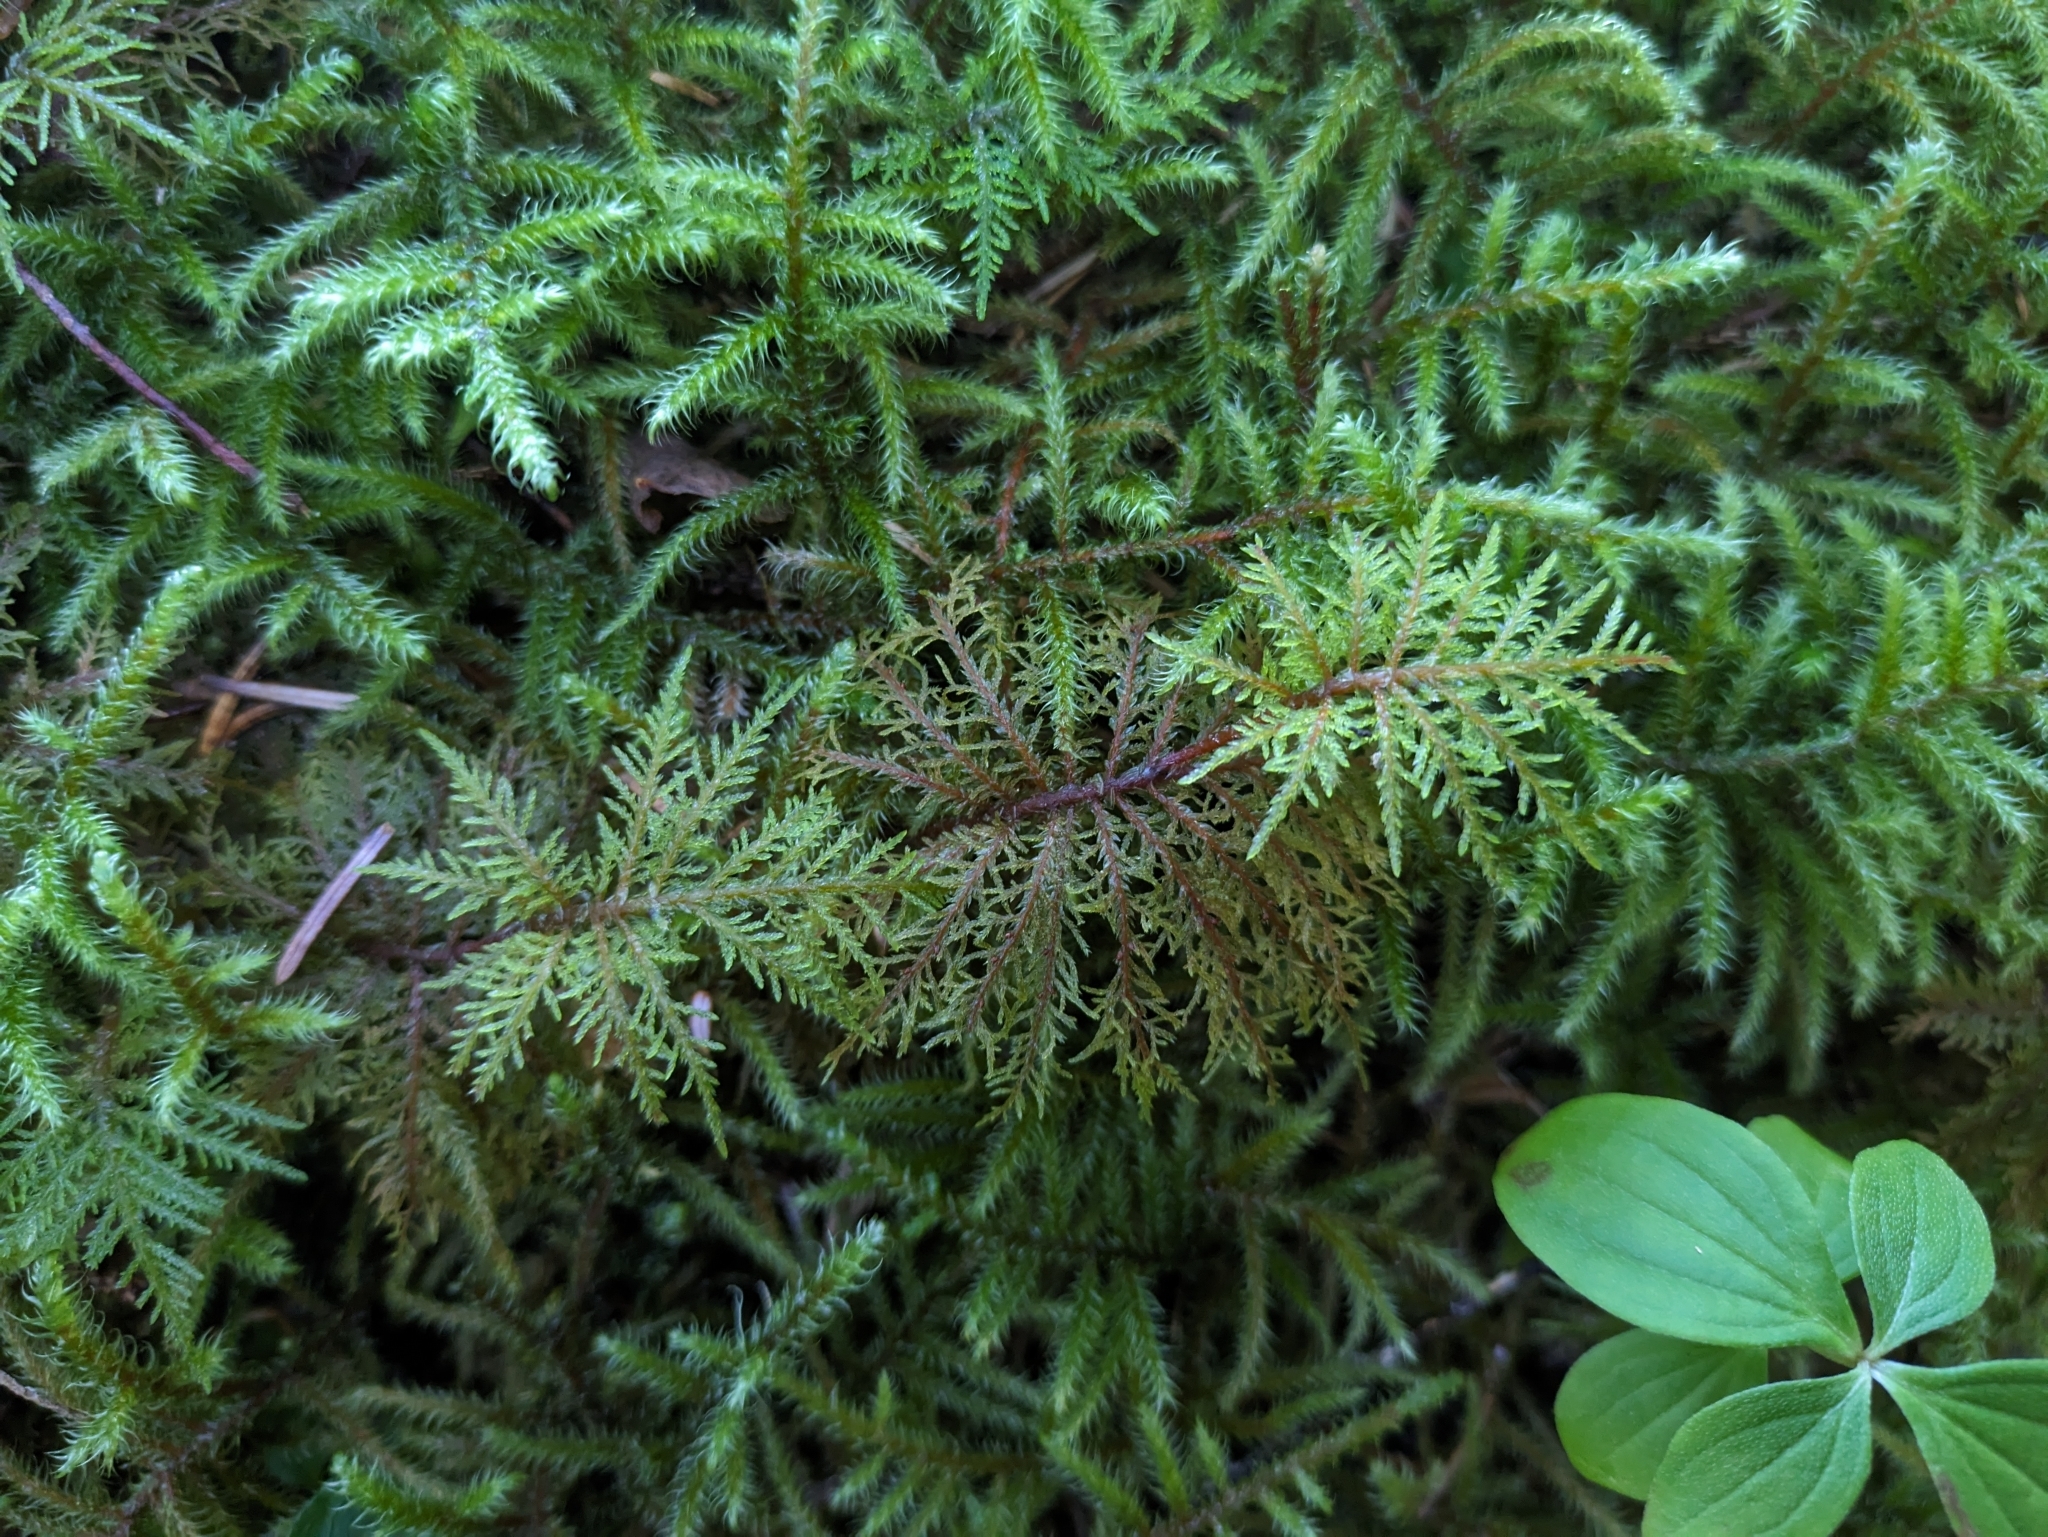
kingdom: Plantae
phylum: Bryophyta
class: Bryopsida
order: Hypnales
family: Hylocomiaceae
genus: Hylocomium
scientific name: Hylocomium splendens
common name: Stairstep moss
